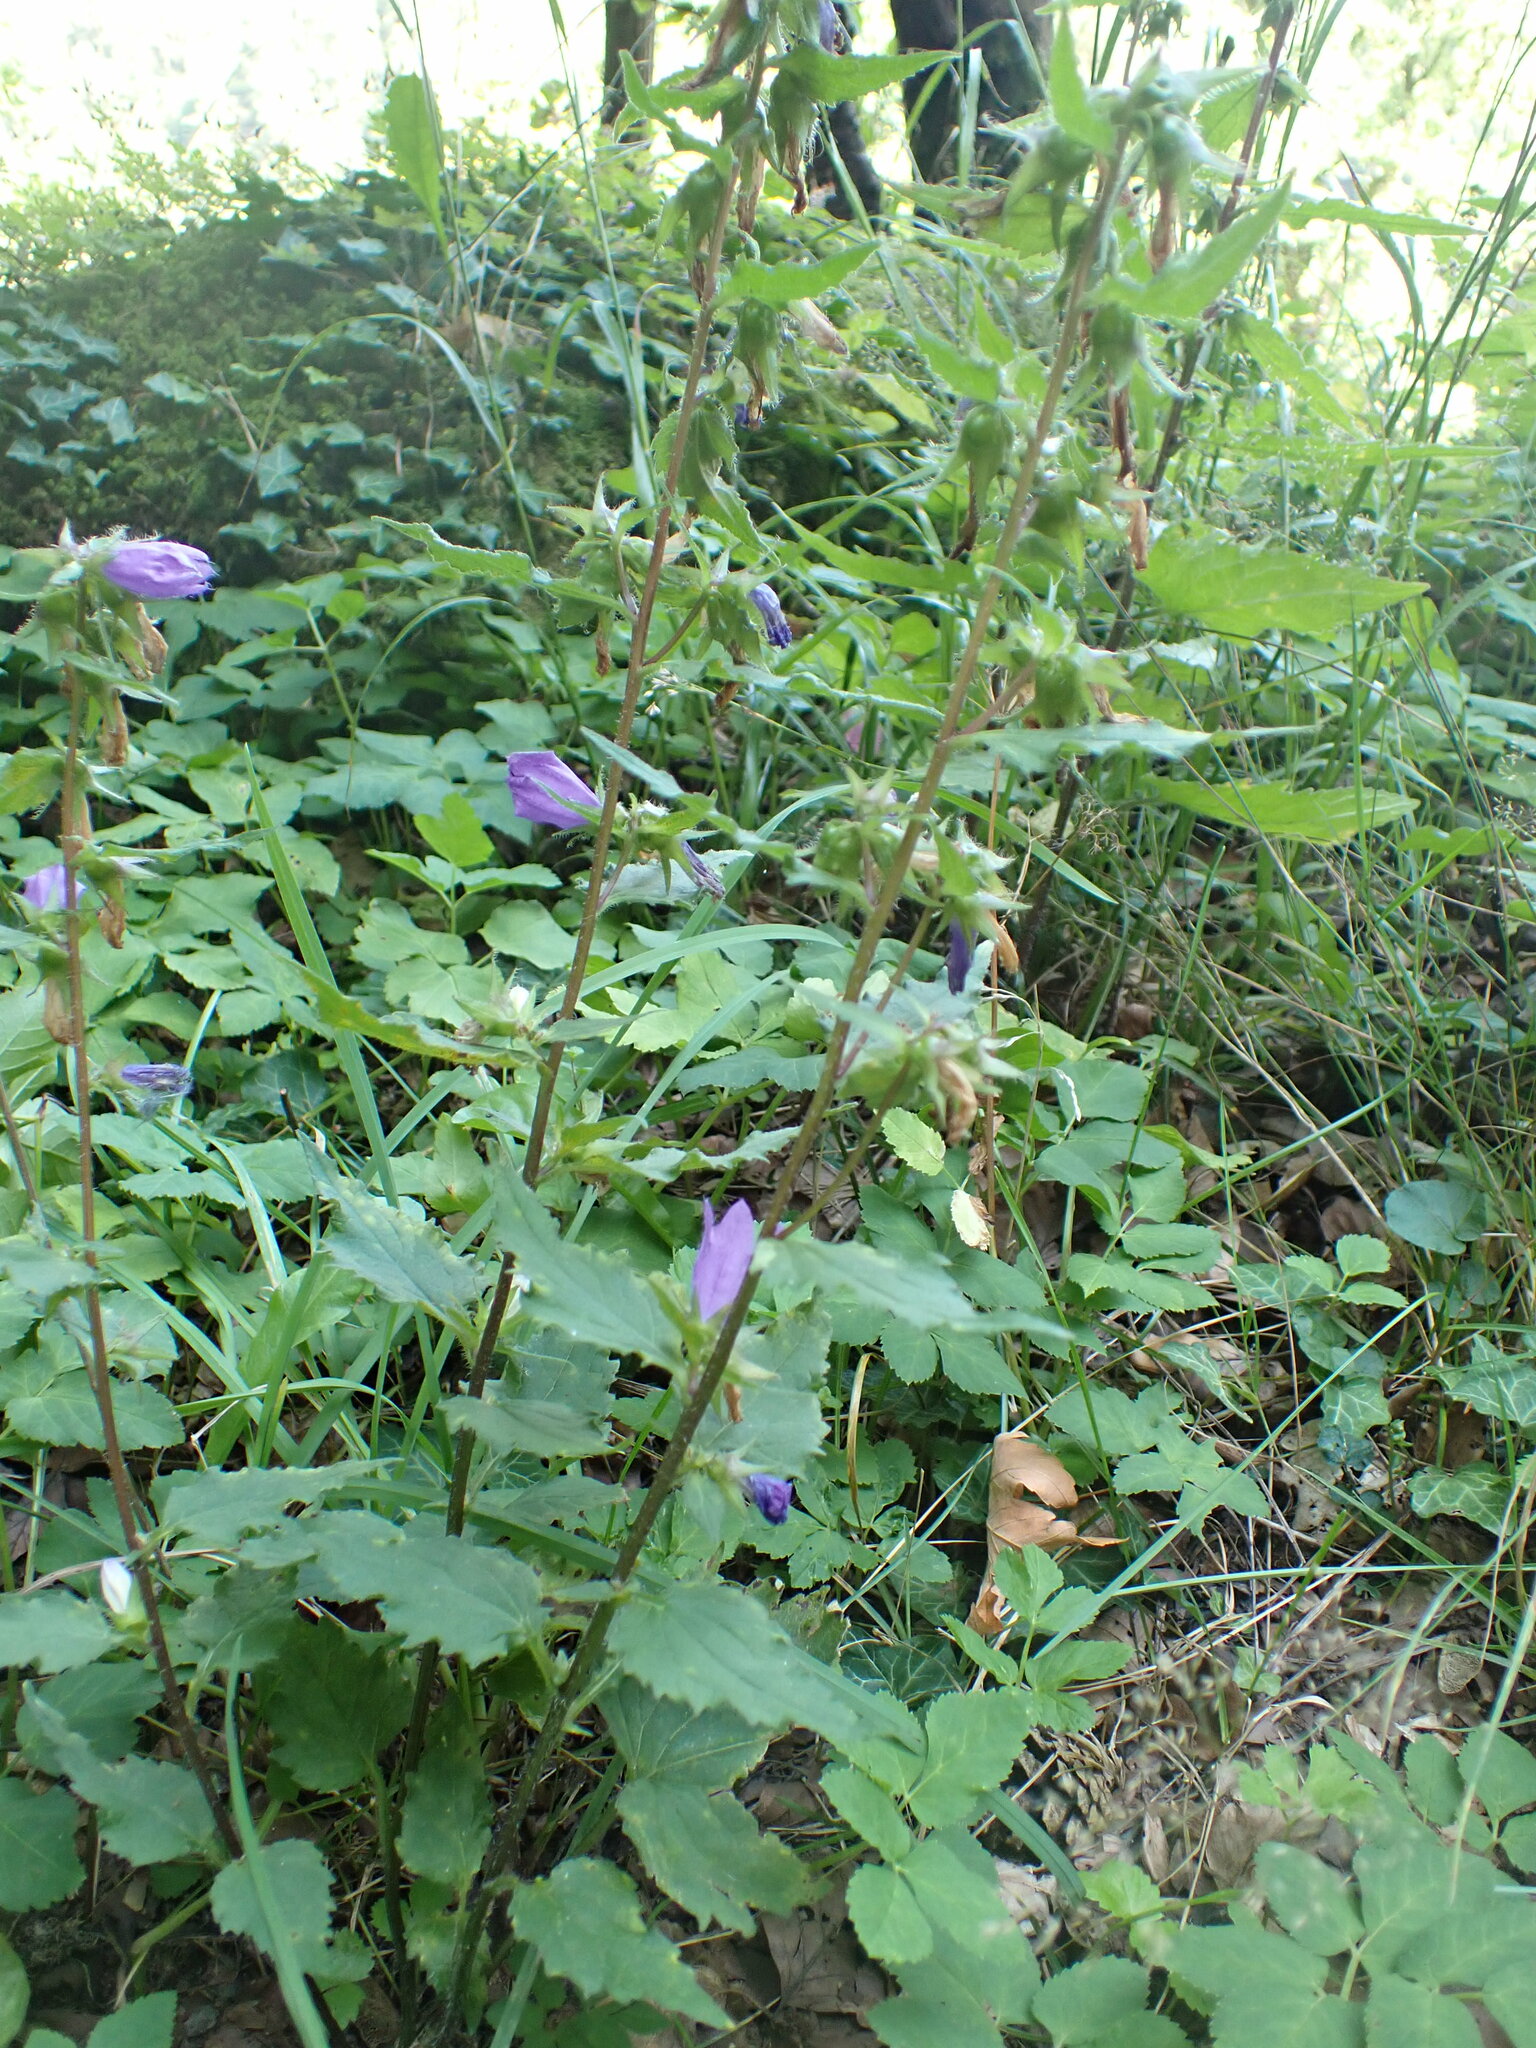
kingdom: Plantae
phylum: Tracheophyta
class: Magnoliopsida
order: Asterales
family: Campanulaceae
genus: Campanula
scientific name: Campanula trachelium
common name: Nettle-leaved bellflower
